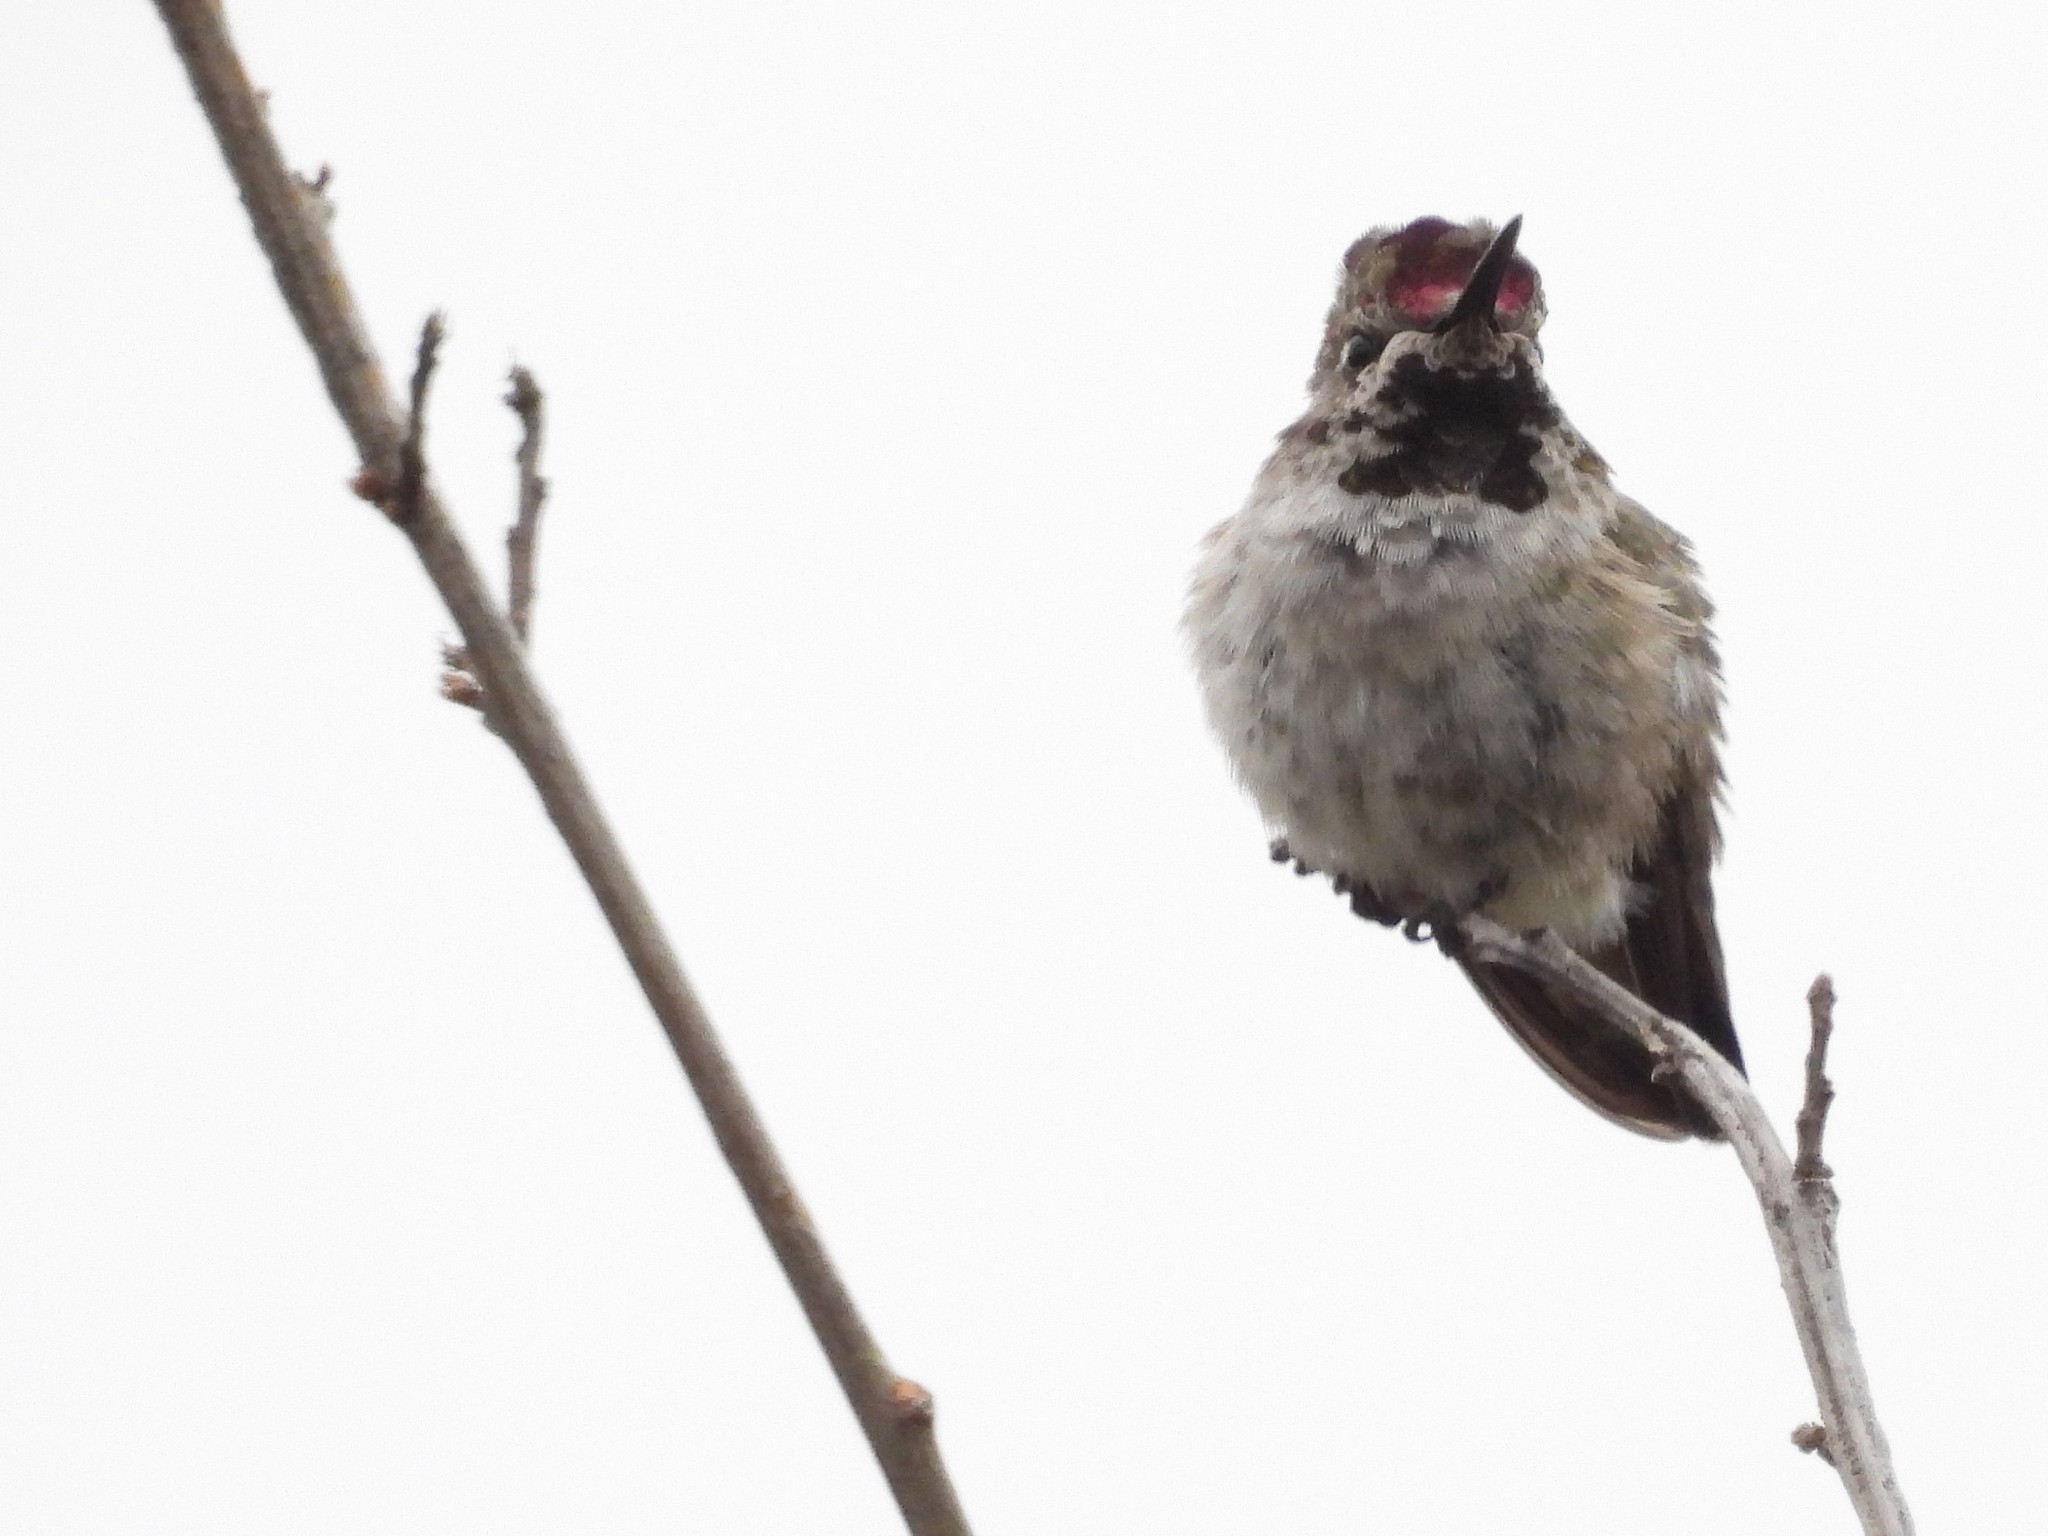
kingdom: Animalia
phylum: Chordata
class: Aves
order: Apodiformes
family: Trochilidae
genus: Calypte
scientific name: Calypte anna
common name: Anna's hummingbird
